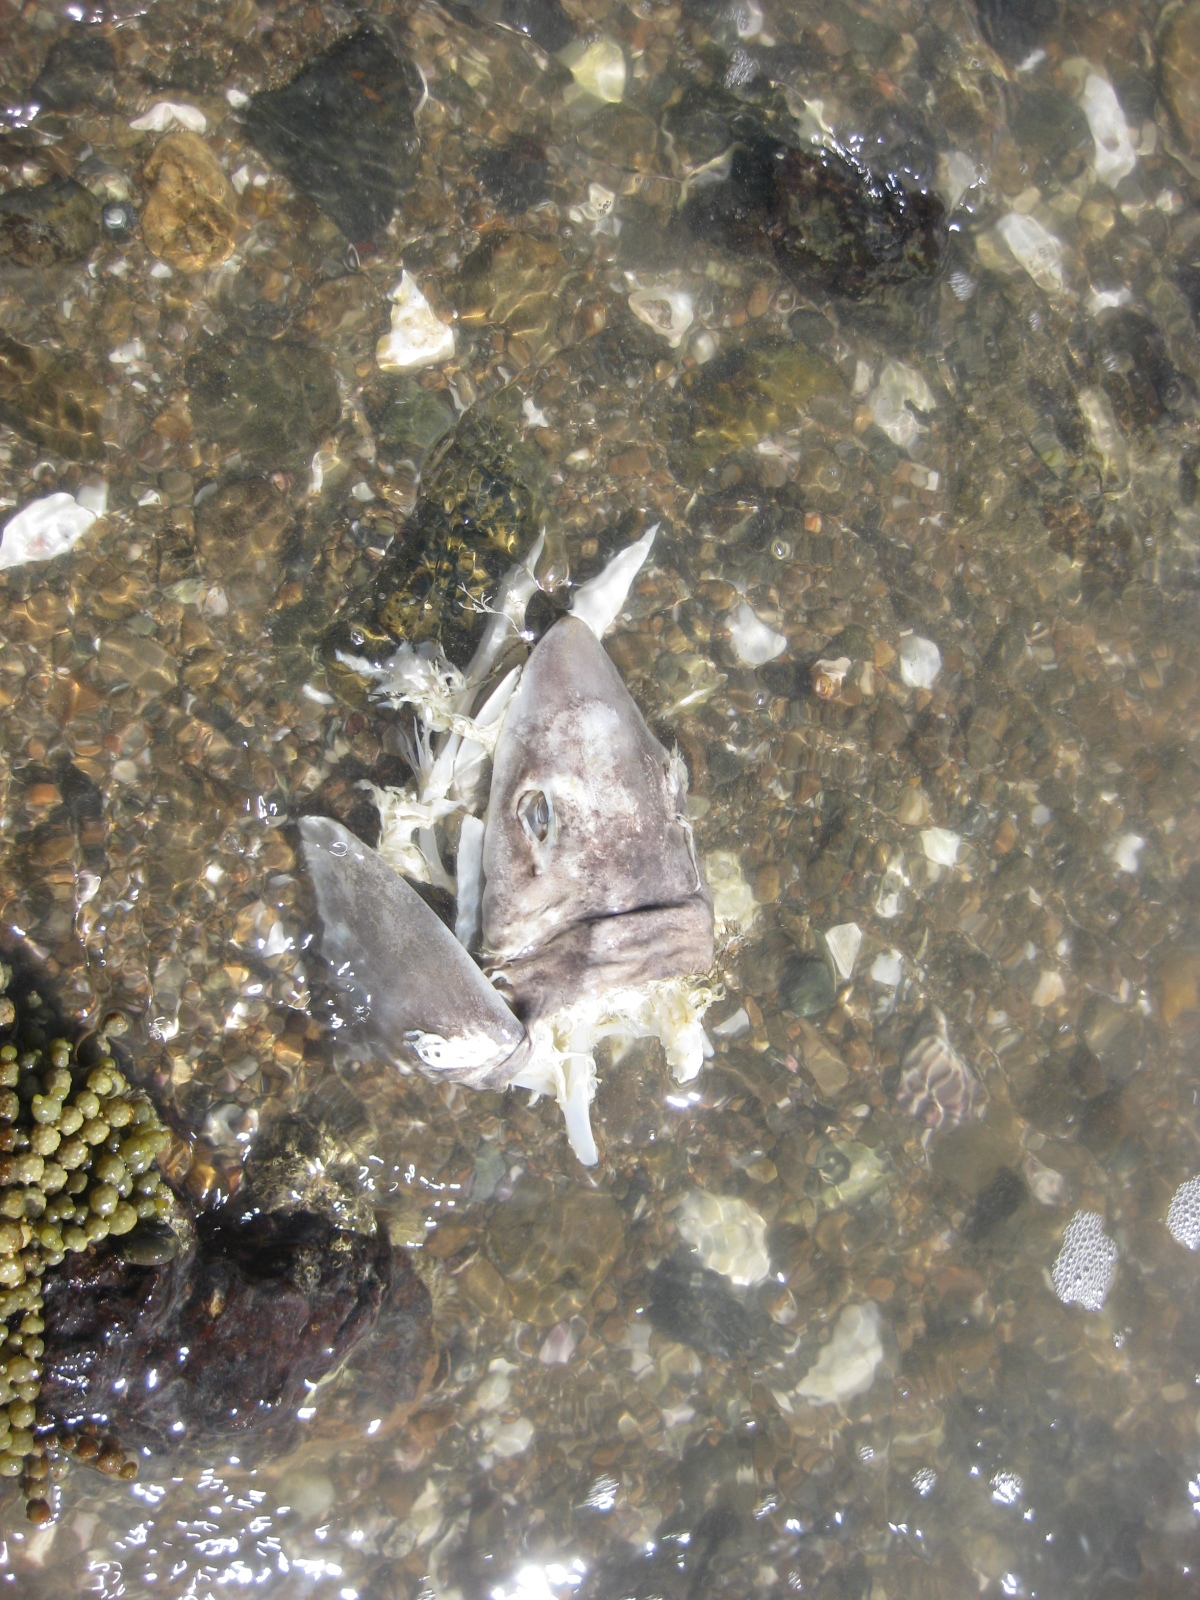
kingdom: Animalia
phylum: Chordata
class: Elasmobranchii
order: Carcharhiniformes
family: Triakidae
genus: Mustelus
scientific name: Mustelus lenticulatus
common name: Gummy shark
